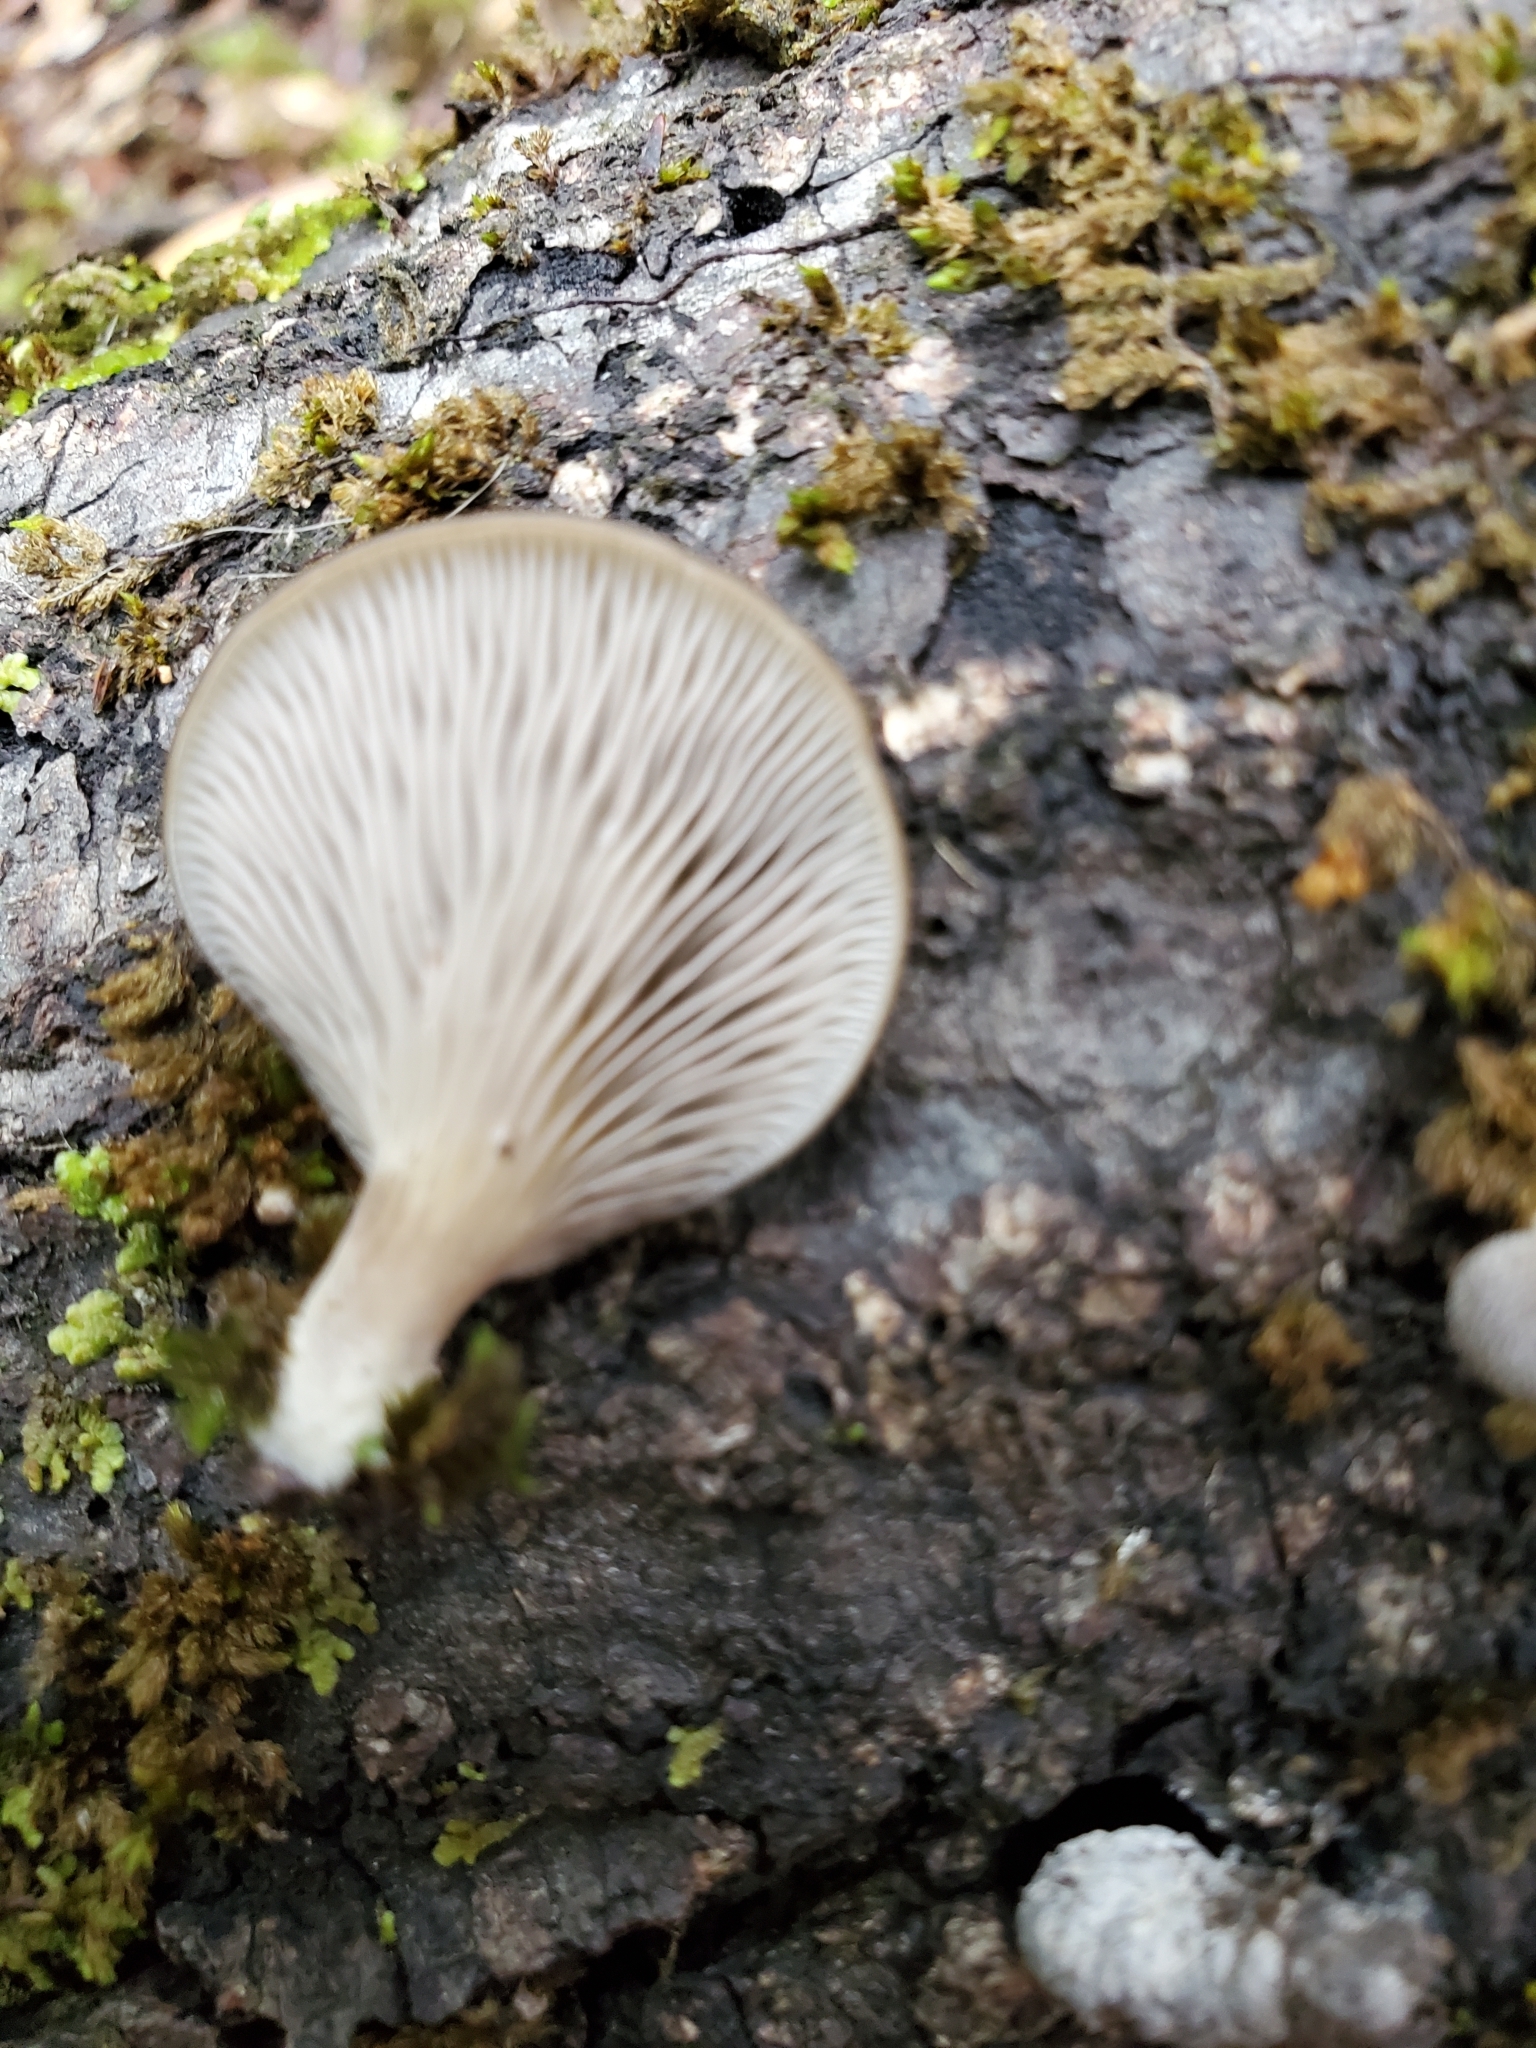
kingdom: Fungi
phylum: Basidiomycota
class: Agaricomycetes
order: Agaricales
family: Pleurotaceae
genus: Pleurotus
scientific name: Pleurotus purpureo-olivaceus
